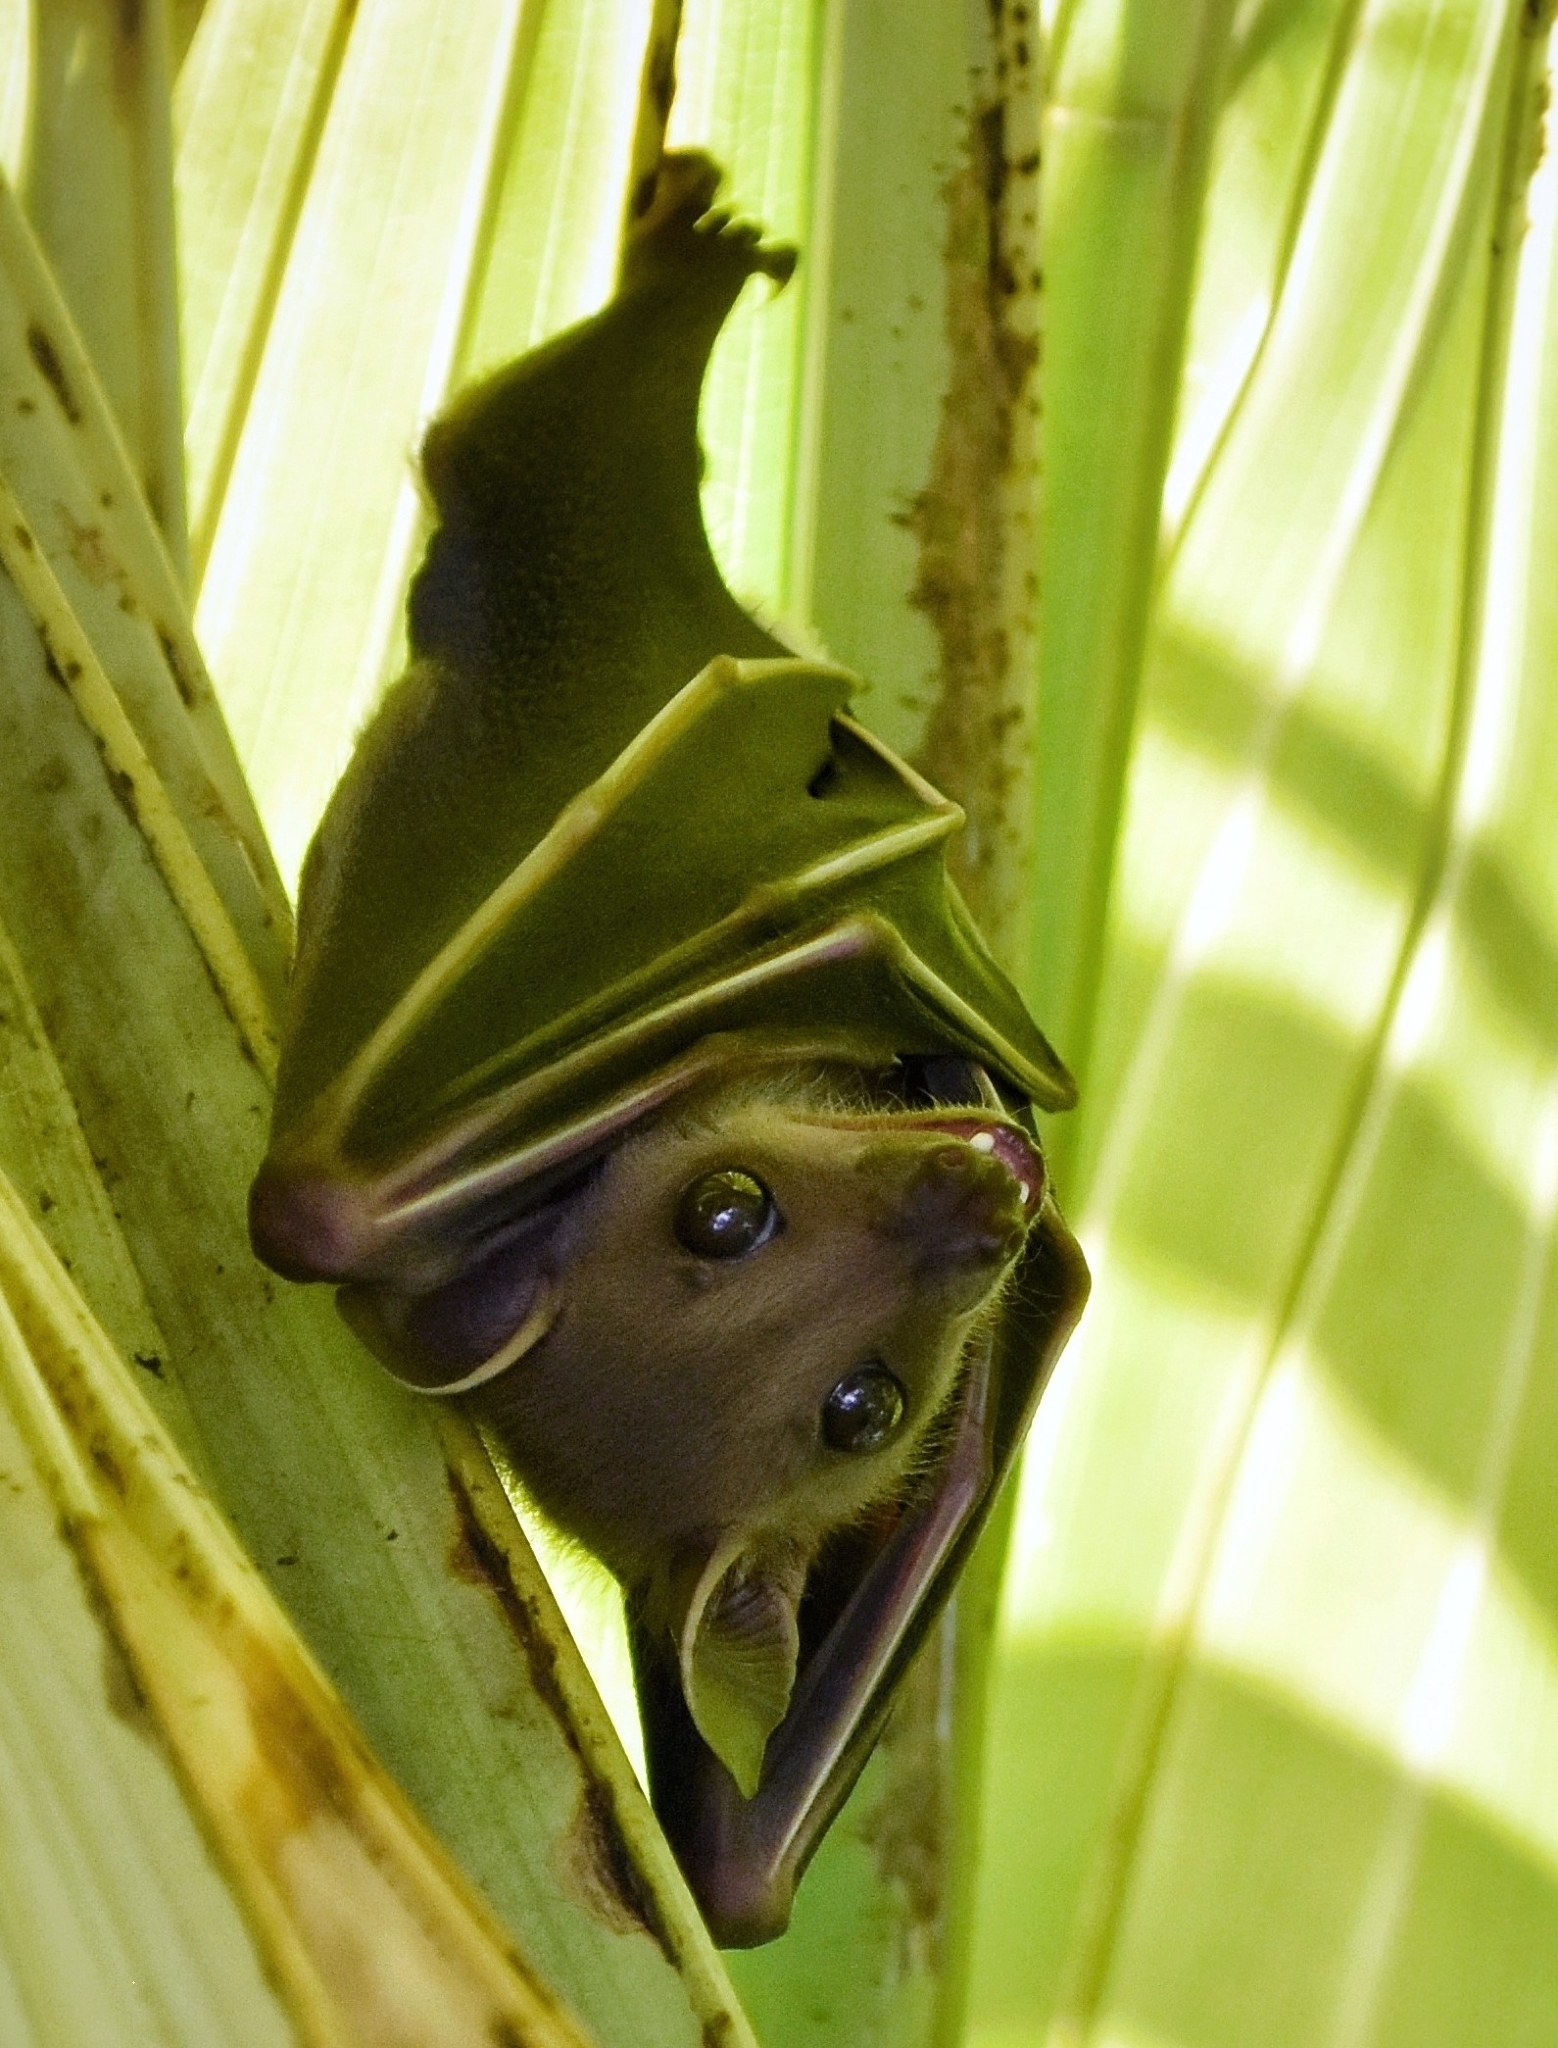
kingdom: Animalia
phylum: Chordata
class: Mammalia
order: Chiroptera
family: Pteropodidae
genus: Cynopterus
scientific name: Cynopterus sphinx
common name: Greater short-nosed fruit bat
